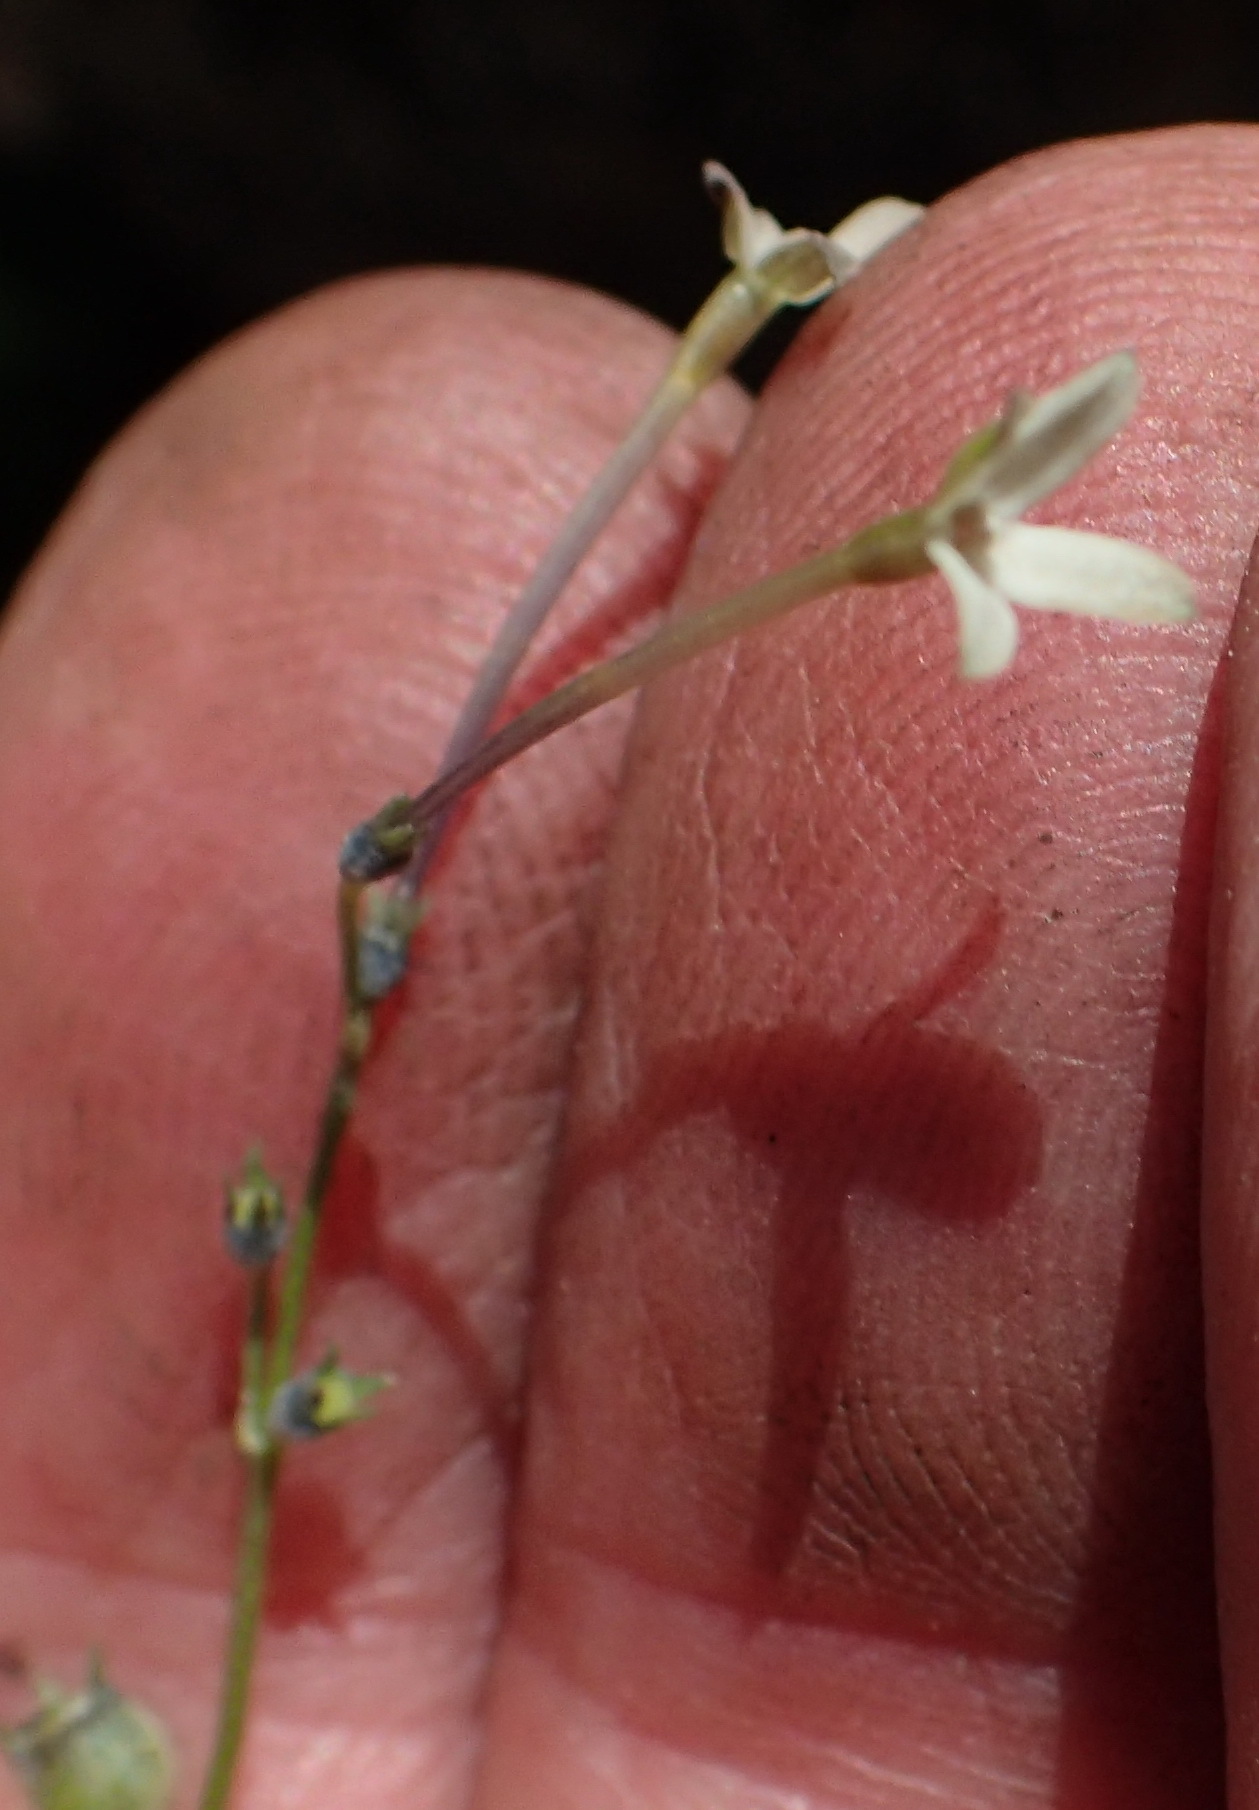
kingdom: Plantae
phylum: Tracheophyta
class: Magnoliopsida
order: Gentianales
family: Rubiaceae
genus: Oldenlandia
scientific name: Oldenlandia herbacea
